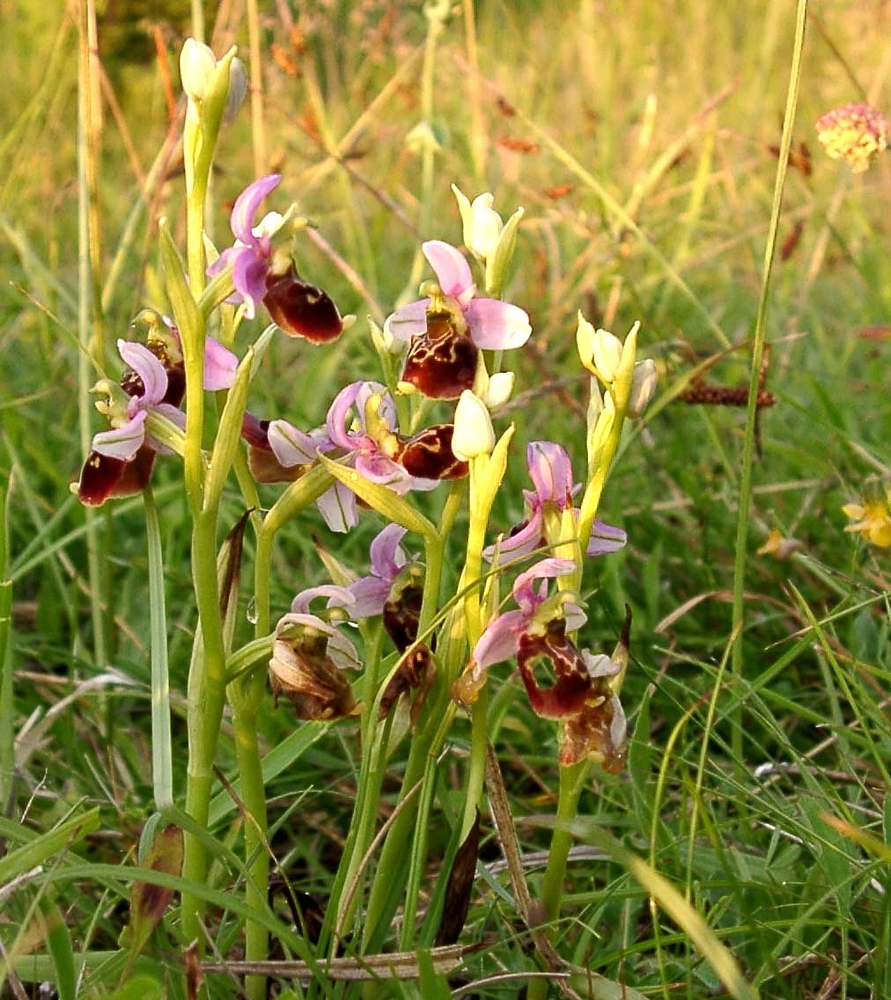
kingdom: Plantae
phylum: Tracheophyta
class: Liliopsida
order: Asparagales
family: Orchidaceae
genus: Ophrys
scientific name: Ophrys holosericea
